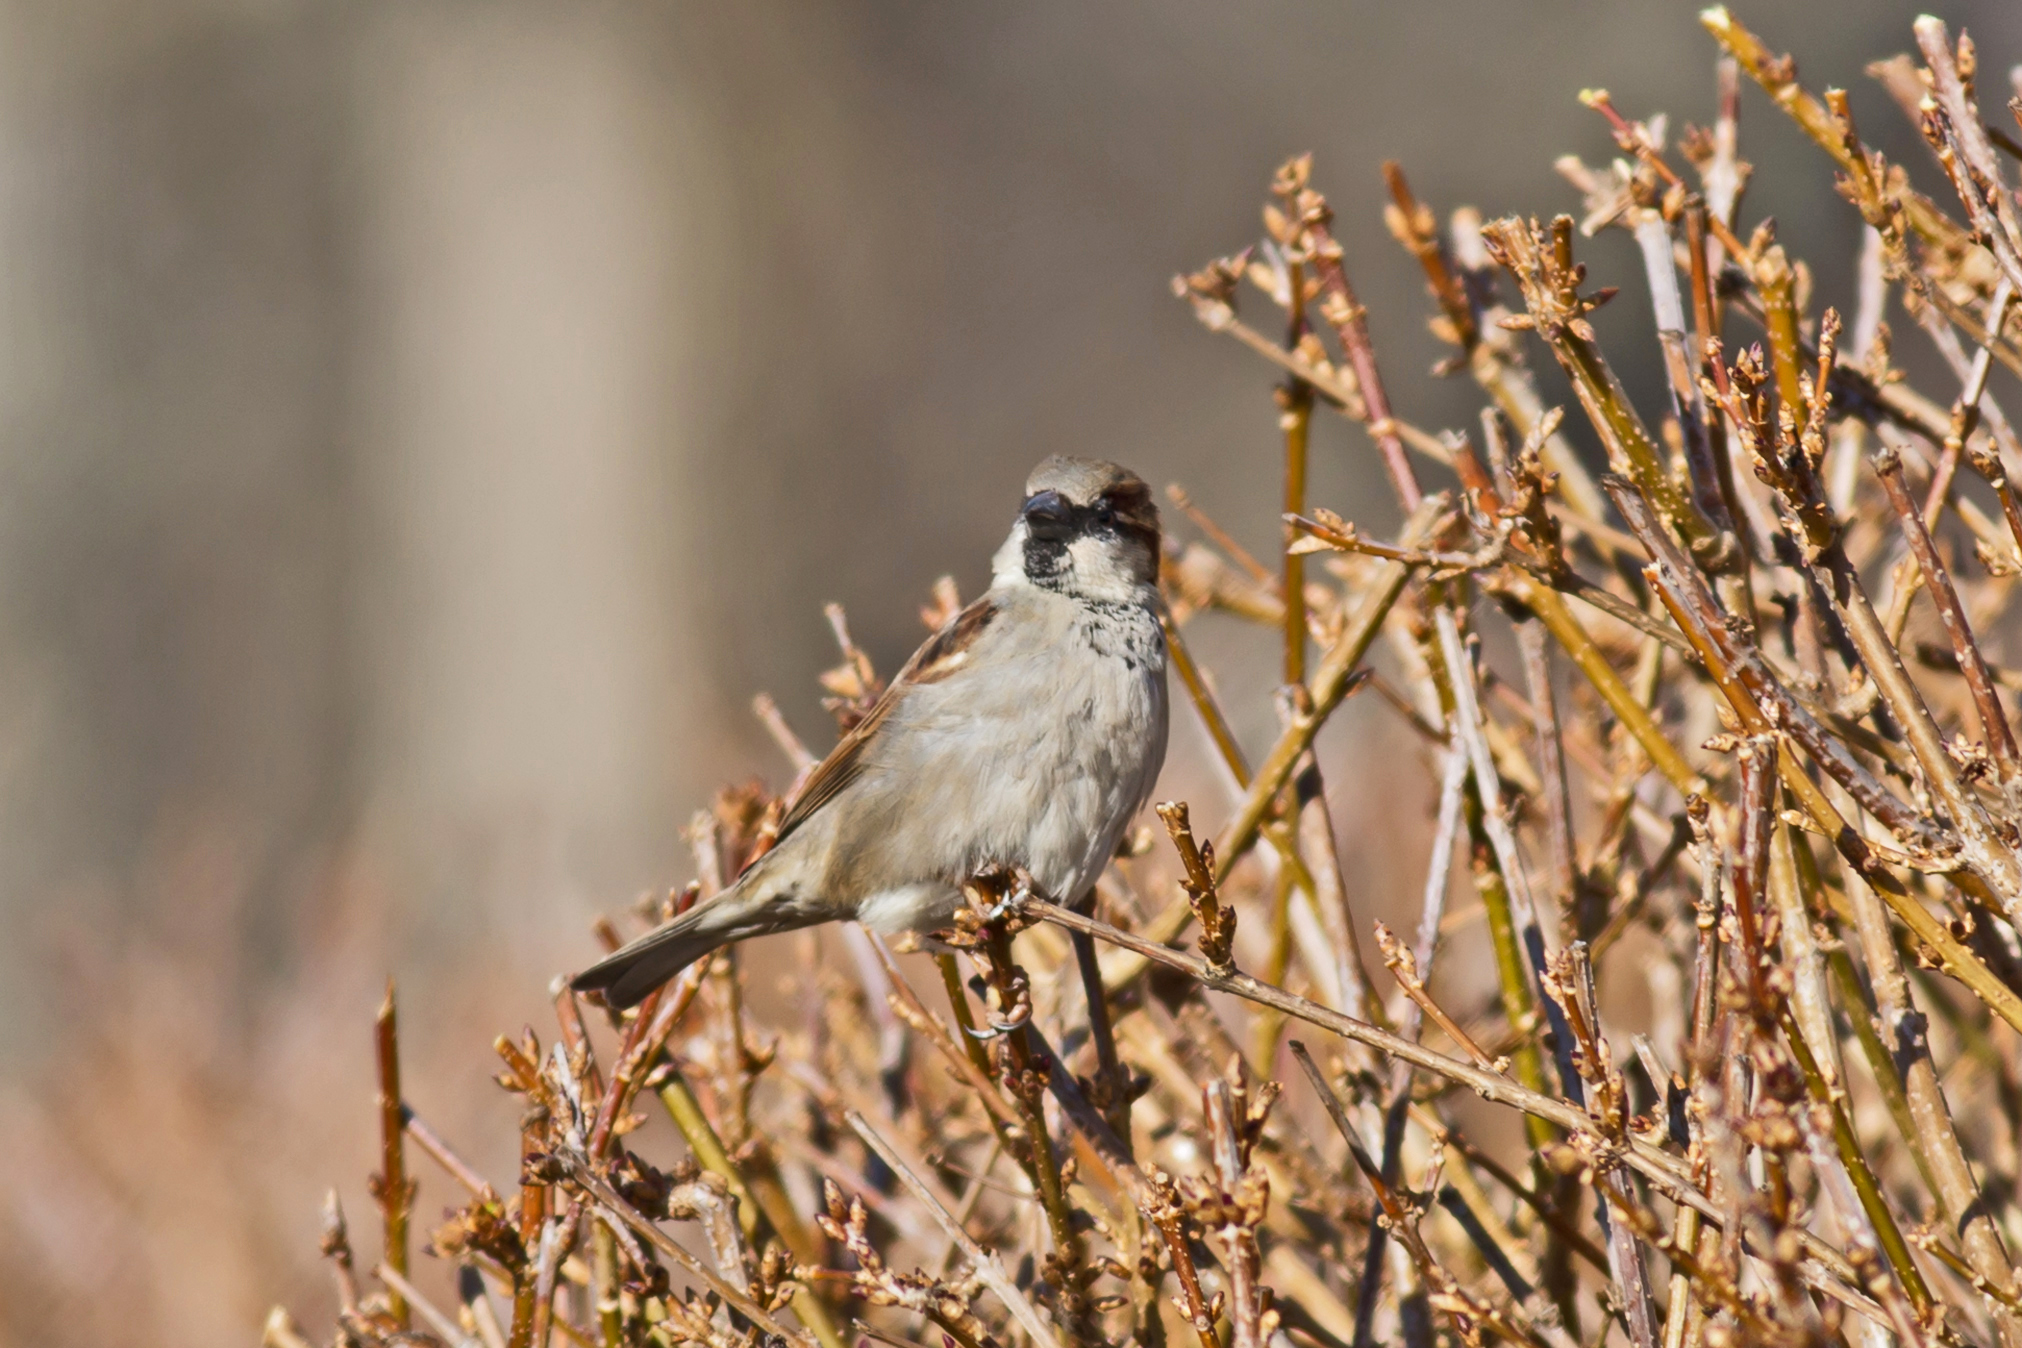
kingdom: Animalia
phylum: Chordata
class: Aves
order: Passeriformes
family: Passeridae
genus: Passer
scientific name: Passer domesticus
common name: House sparrow
